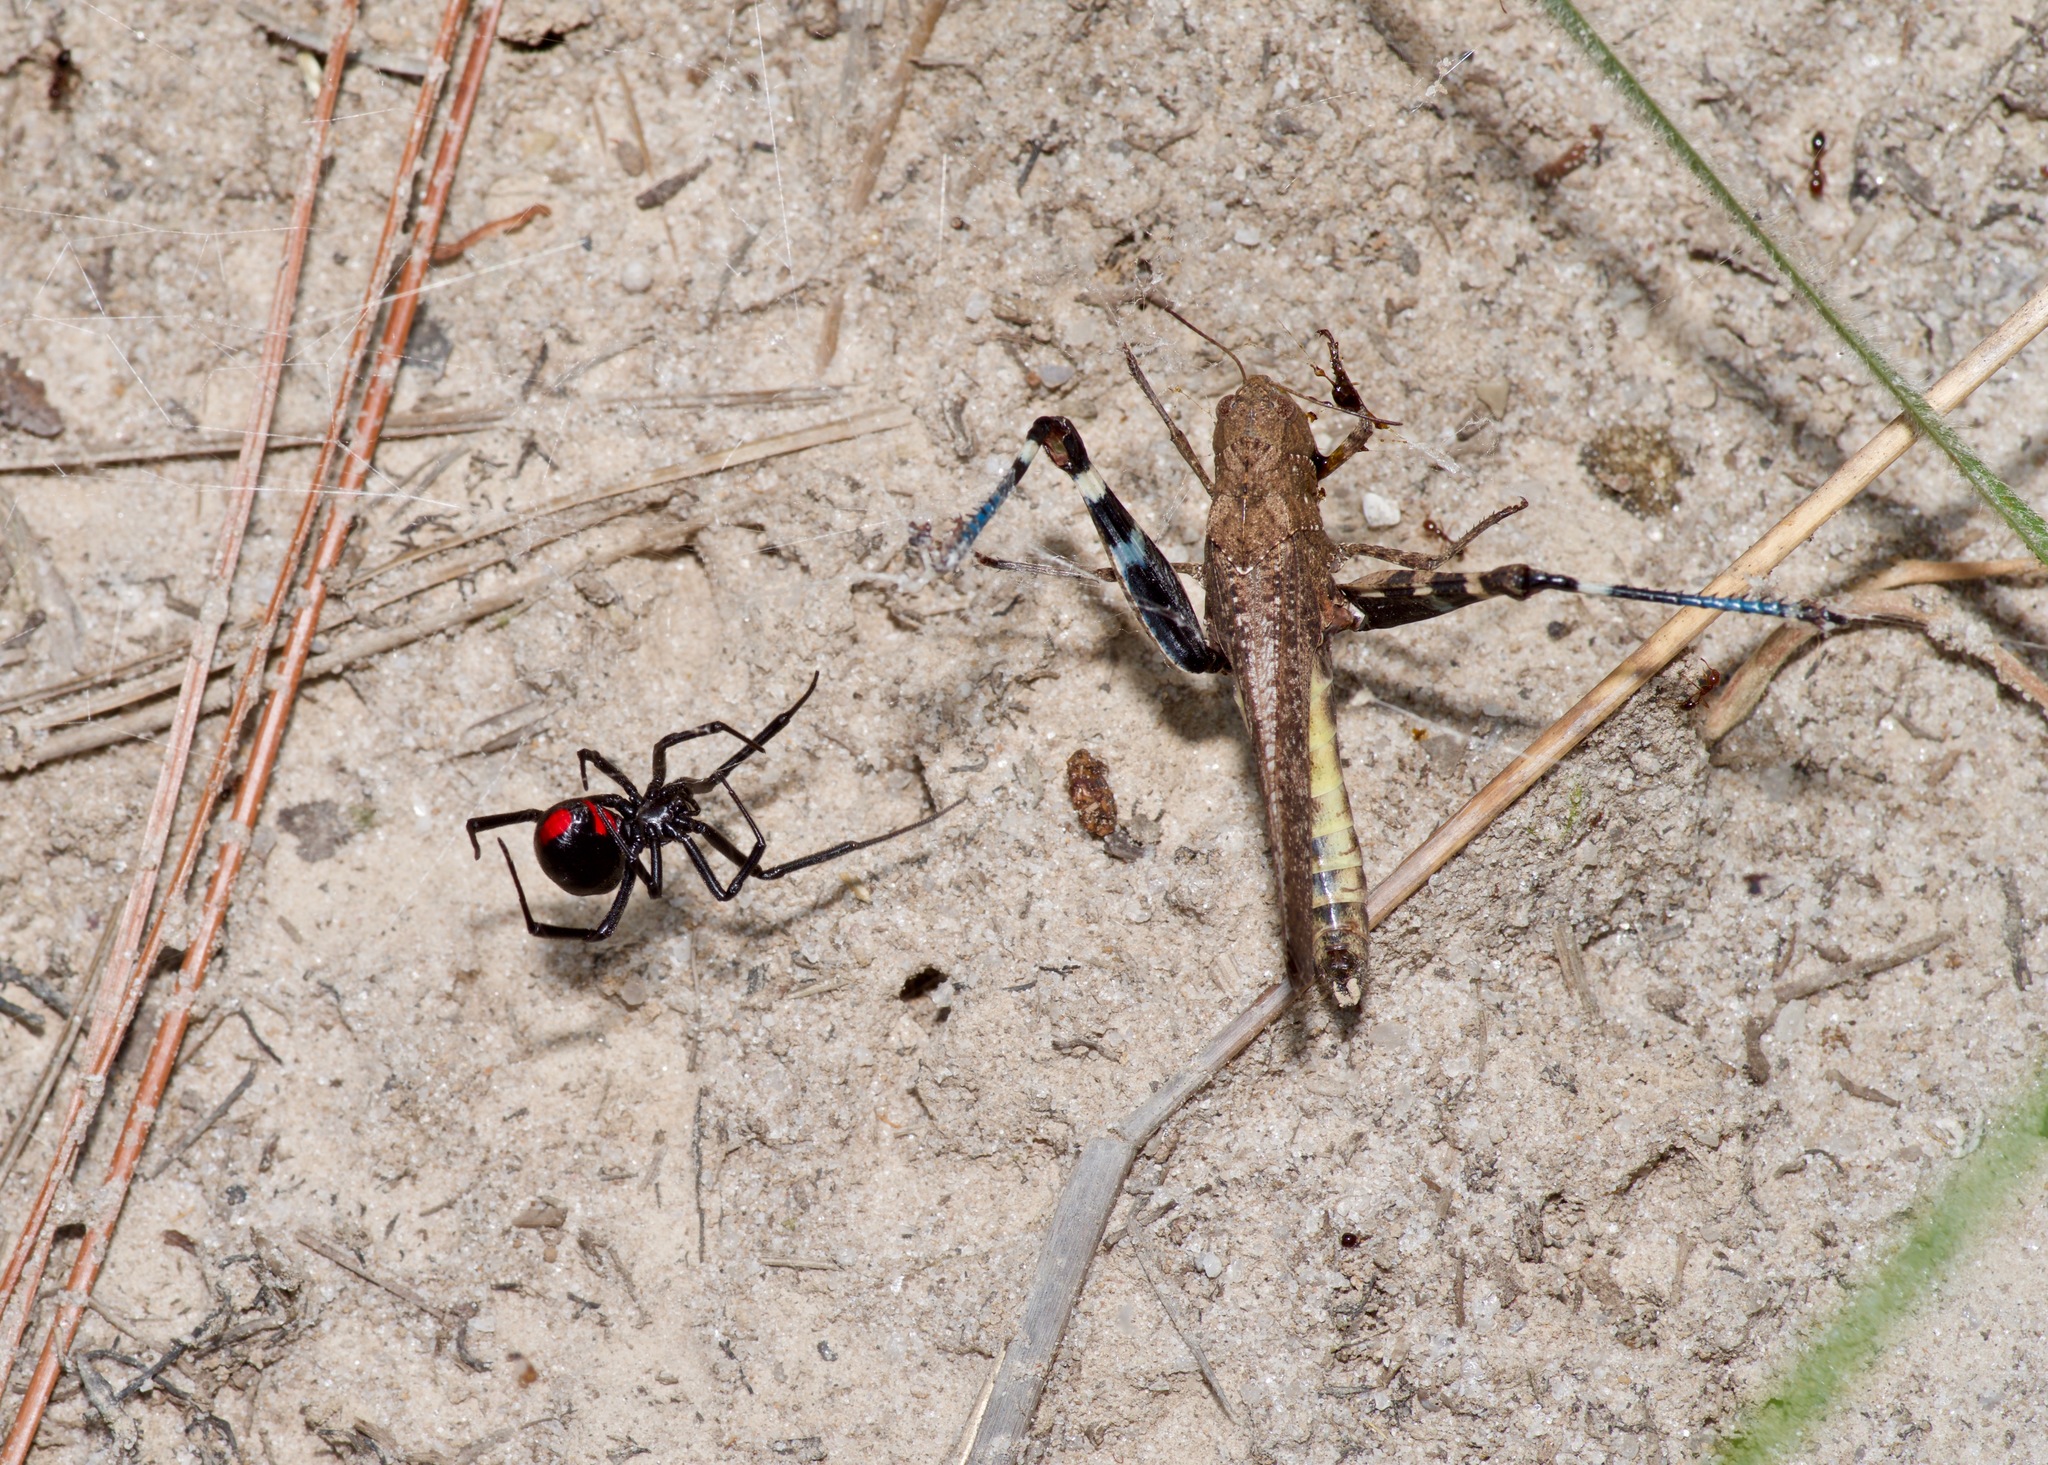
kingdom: Animalia
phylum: Arthropoda
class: Arachnida
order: Araneae
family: Theridiidae
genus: Latrodectus
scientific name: Latrodectus mactans
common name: Cobweb spiders
